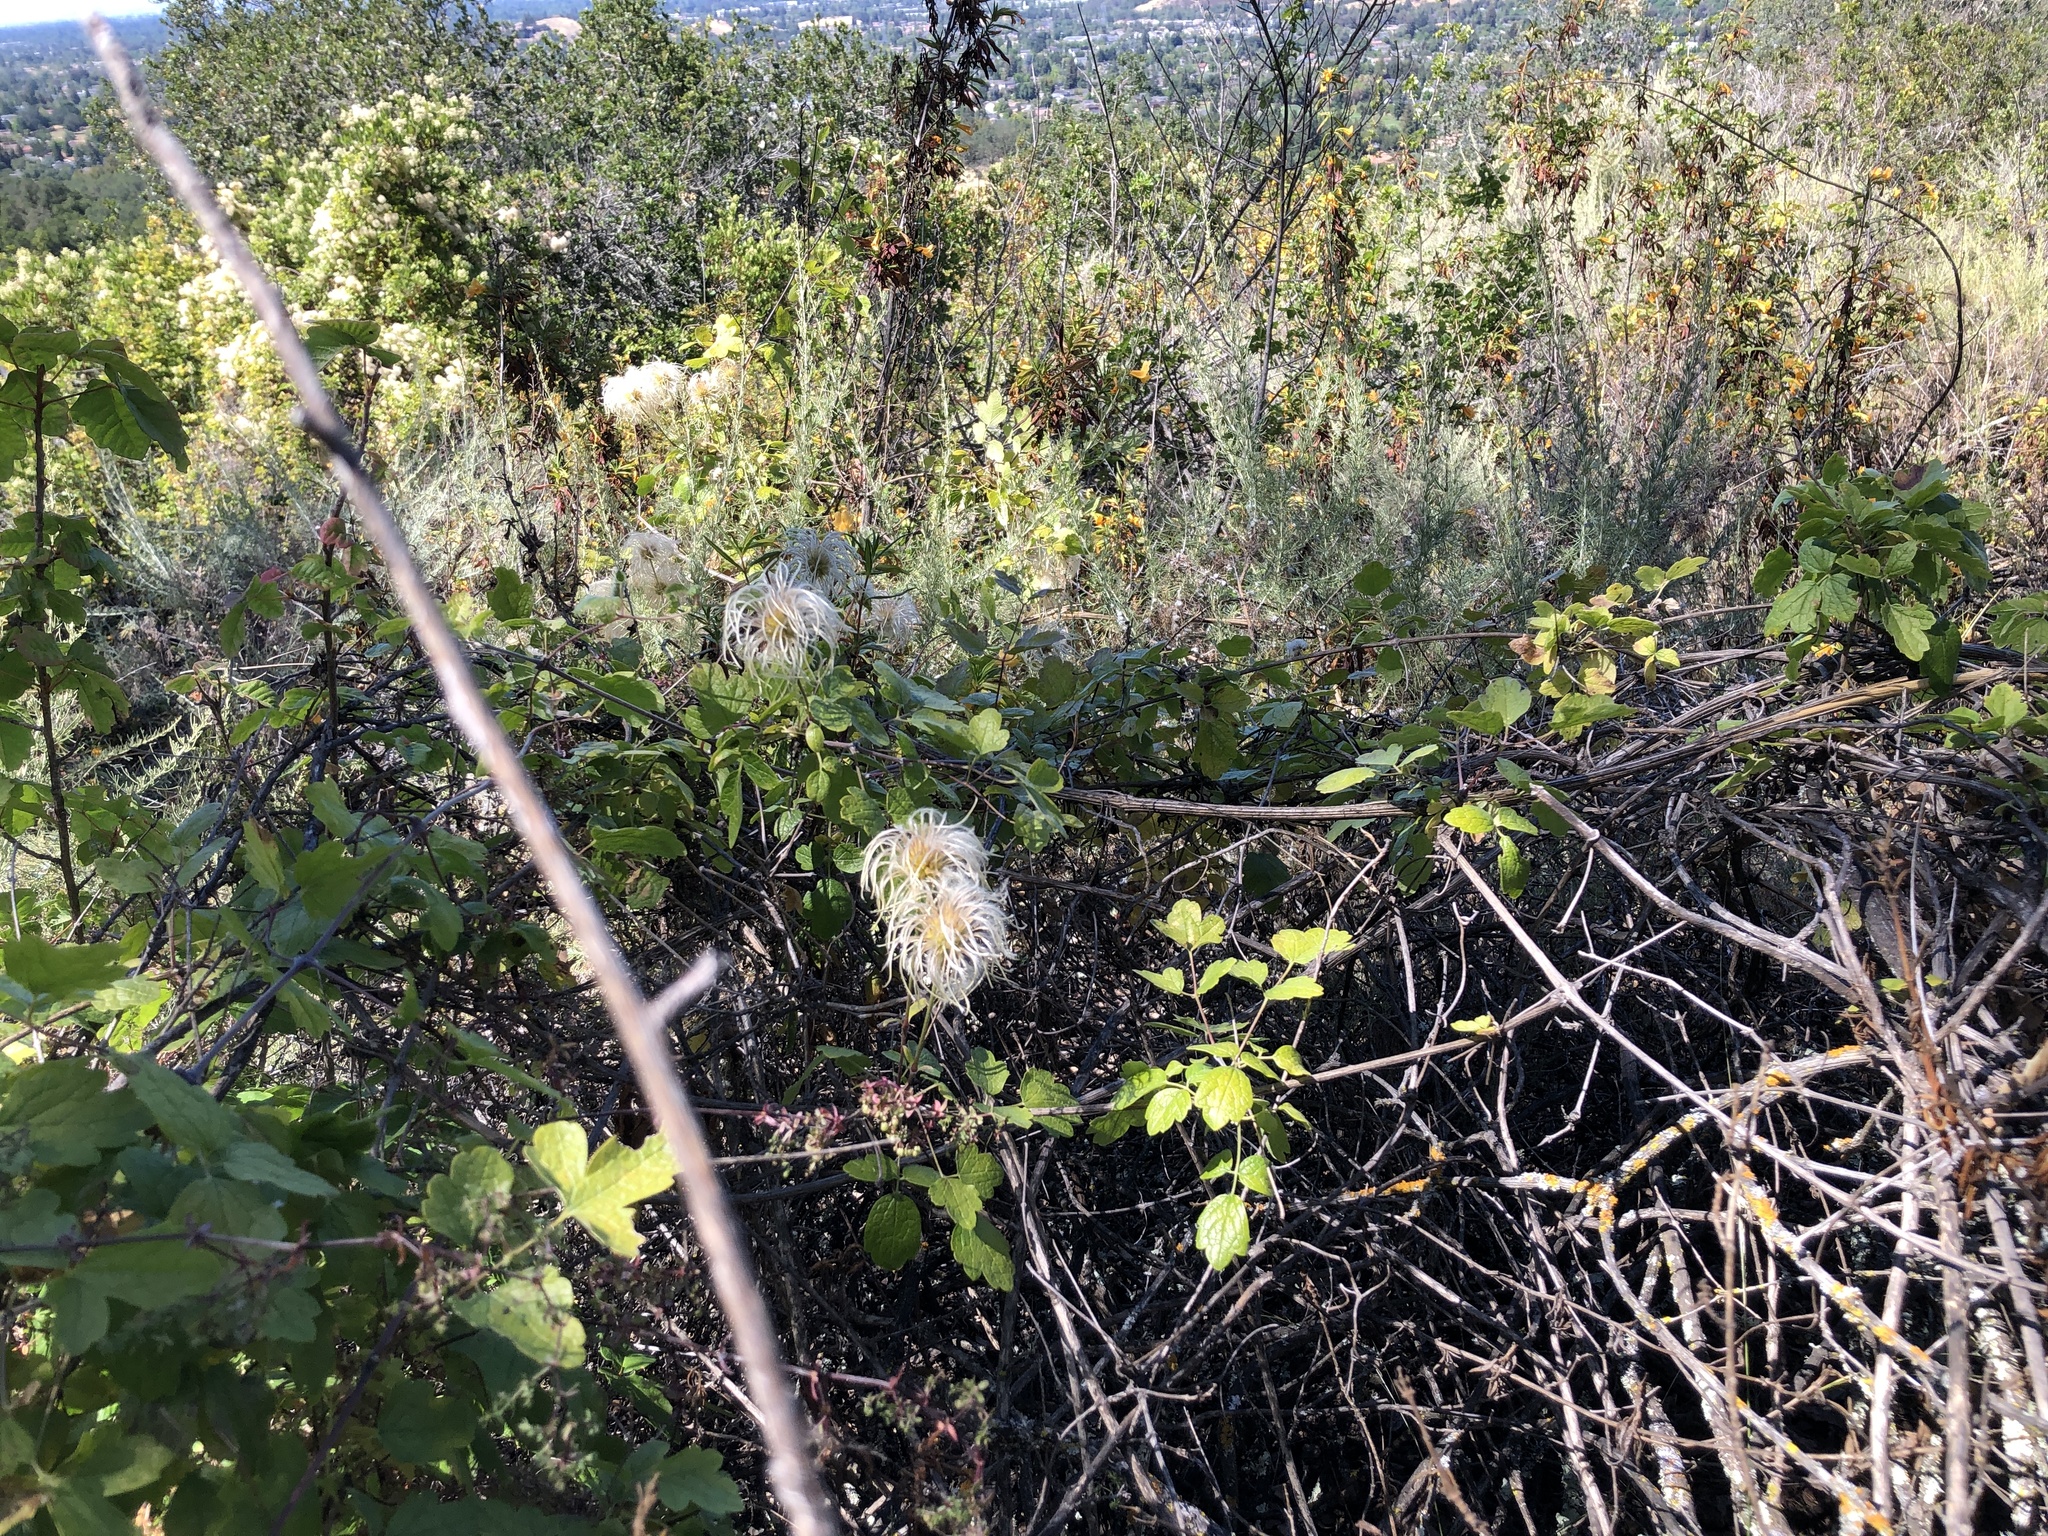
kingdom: Plantae
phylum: Tracheophyta
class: Magnoliopsida
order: Ranunculales
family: Ranunculaceae
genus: Clematis
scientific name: Clematis lasiantha
